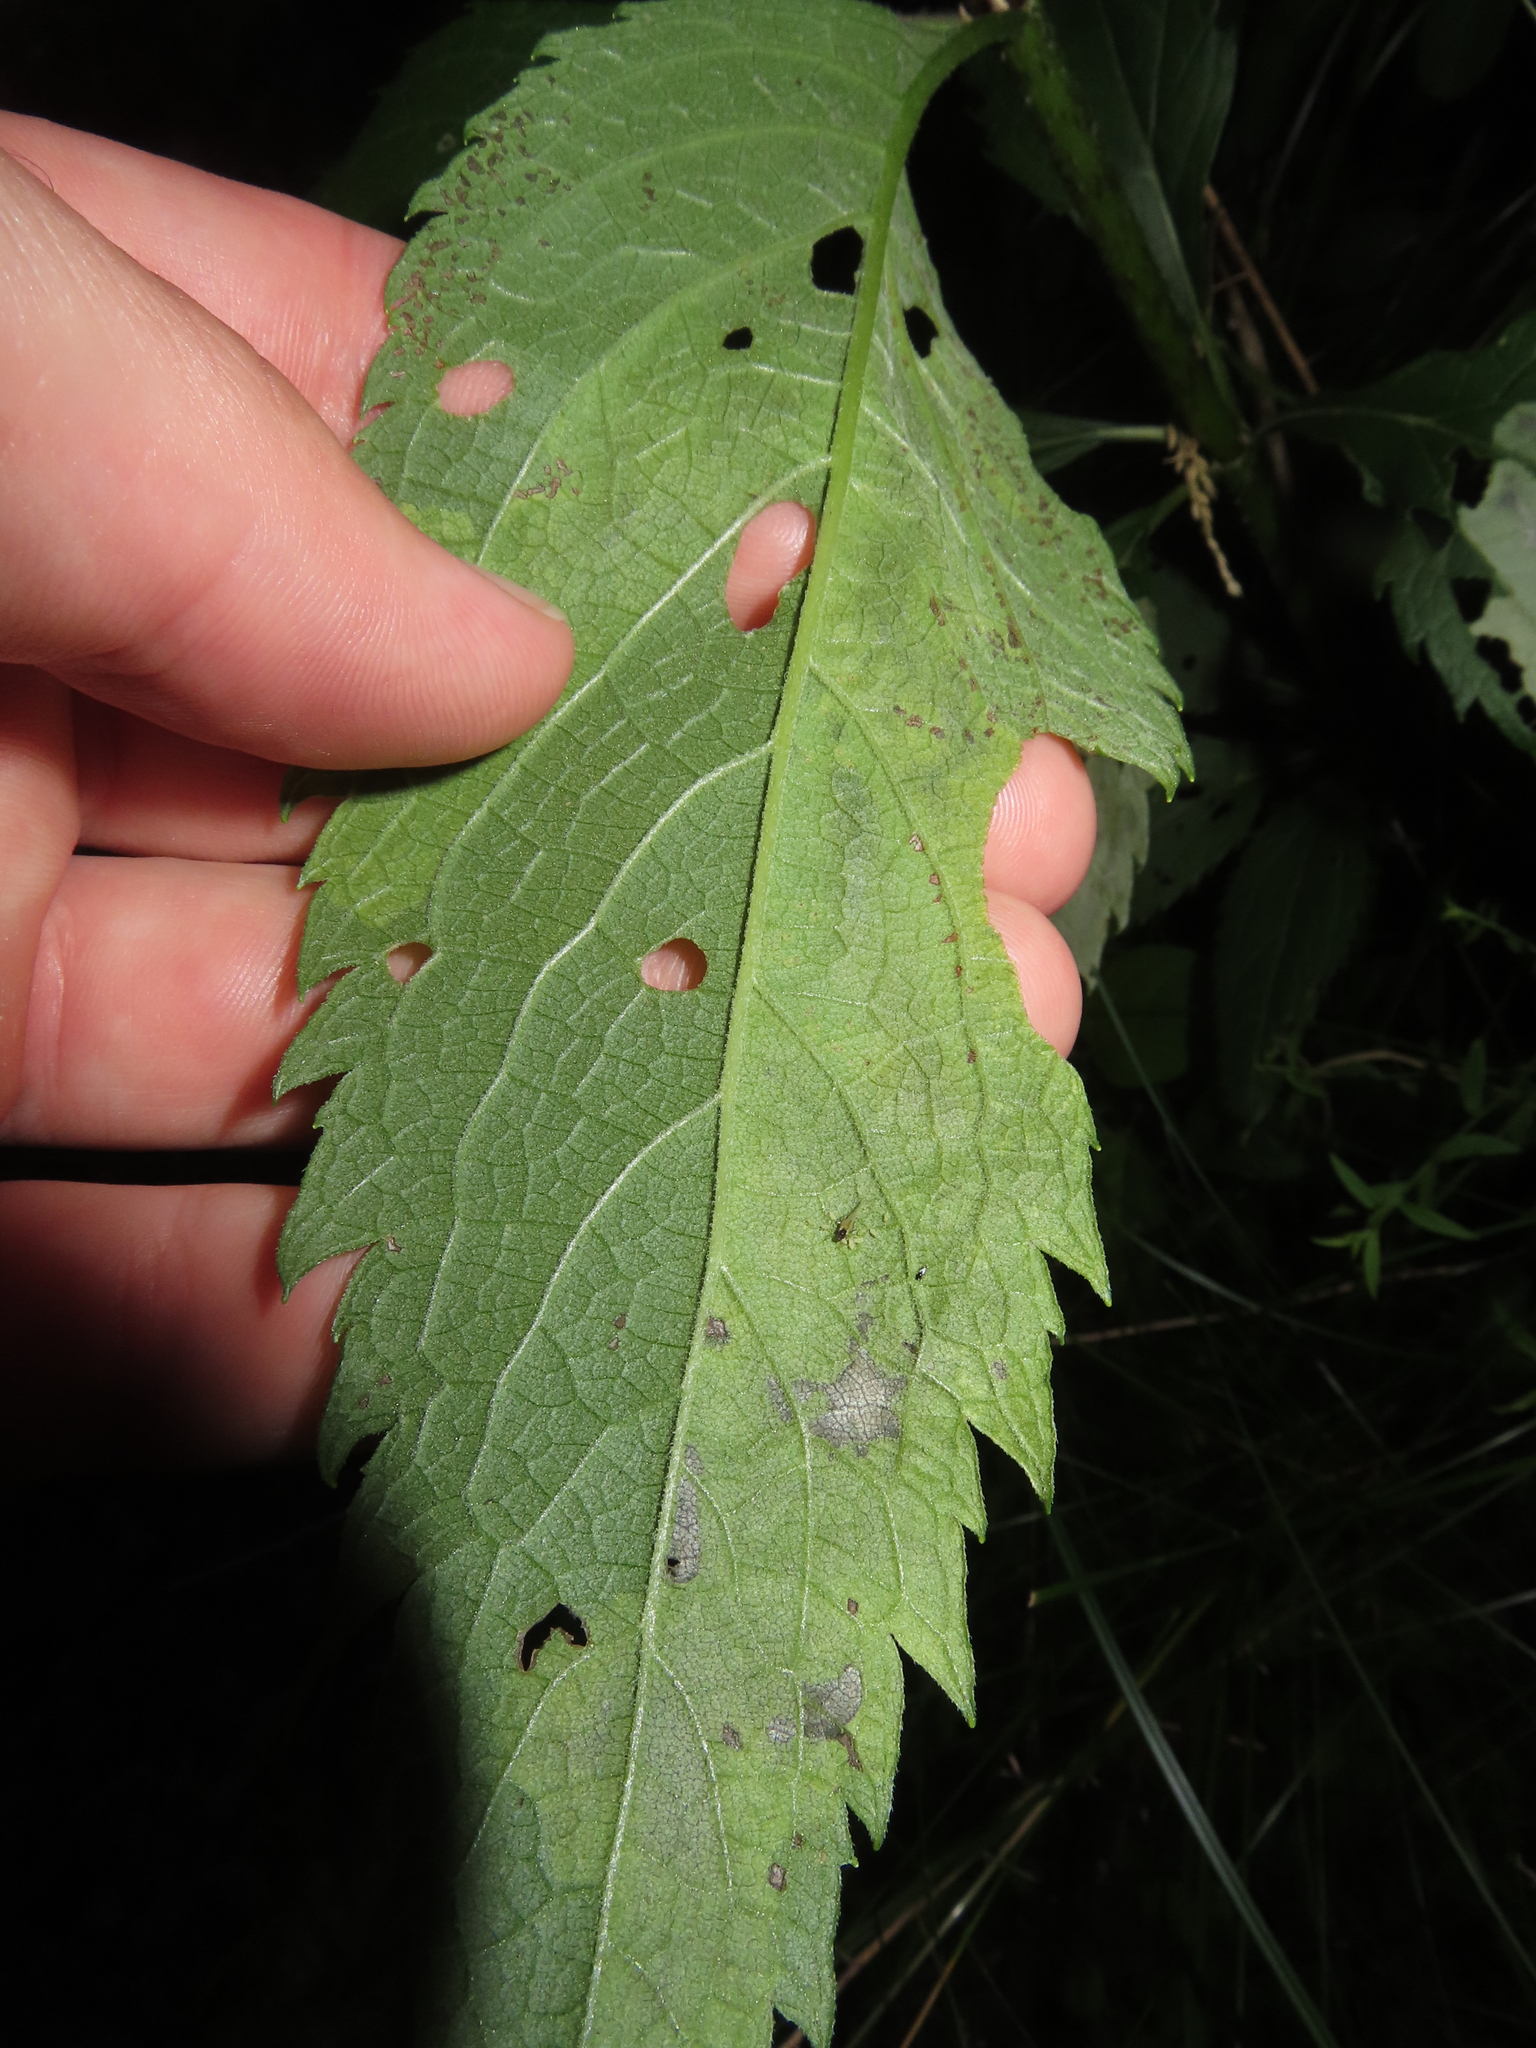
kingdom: Animalia
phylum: Arthropoda
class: Insecta
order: Diptera
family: Agromyzidae
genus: Calycomyza
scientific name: Calycomyza flavinotum
